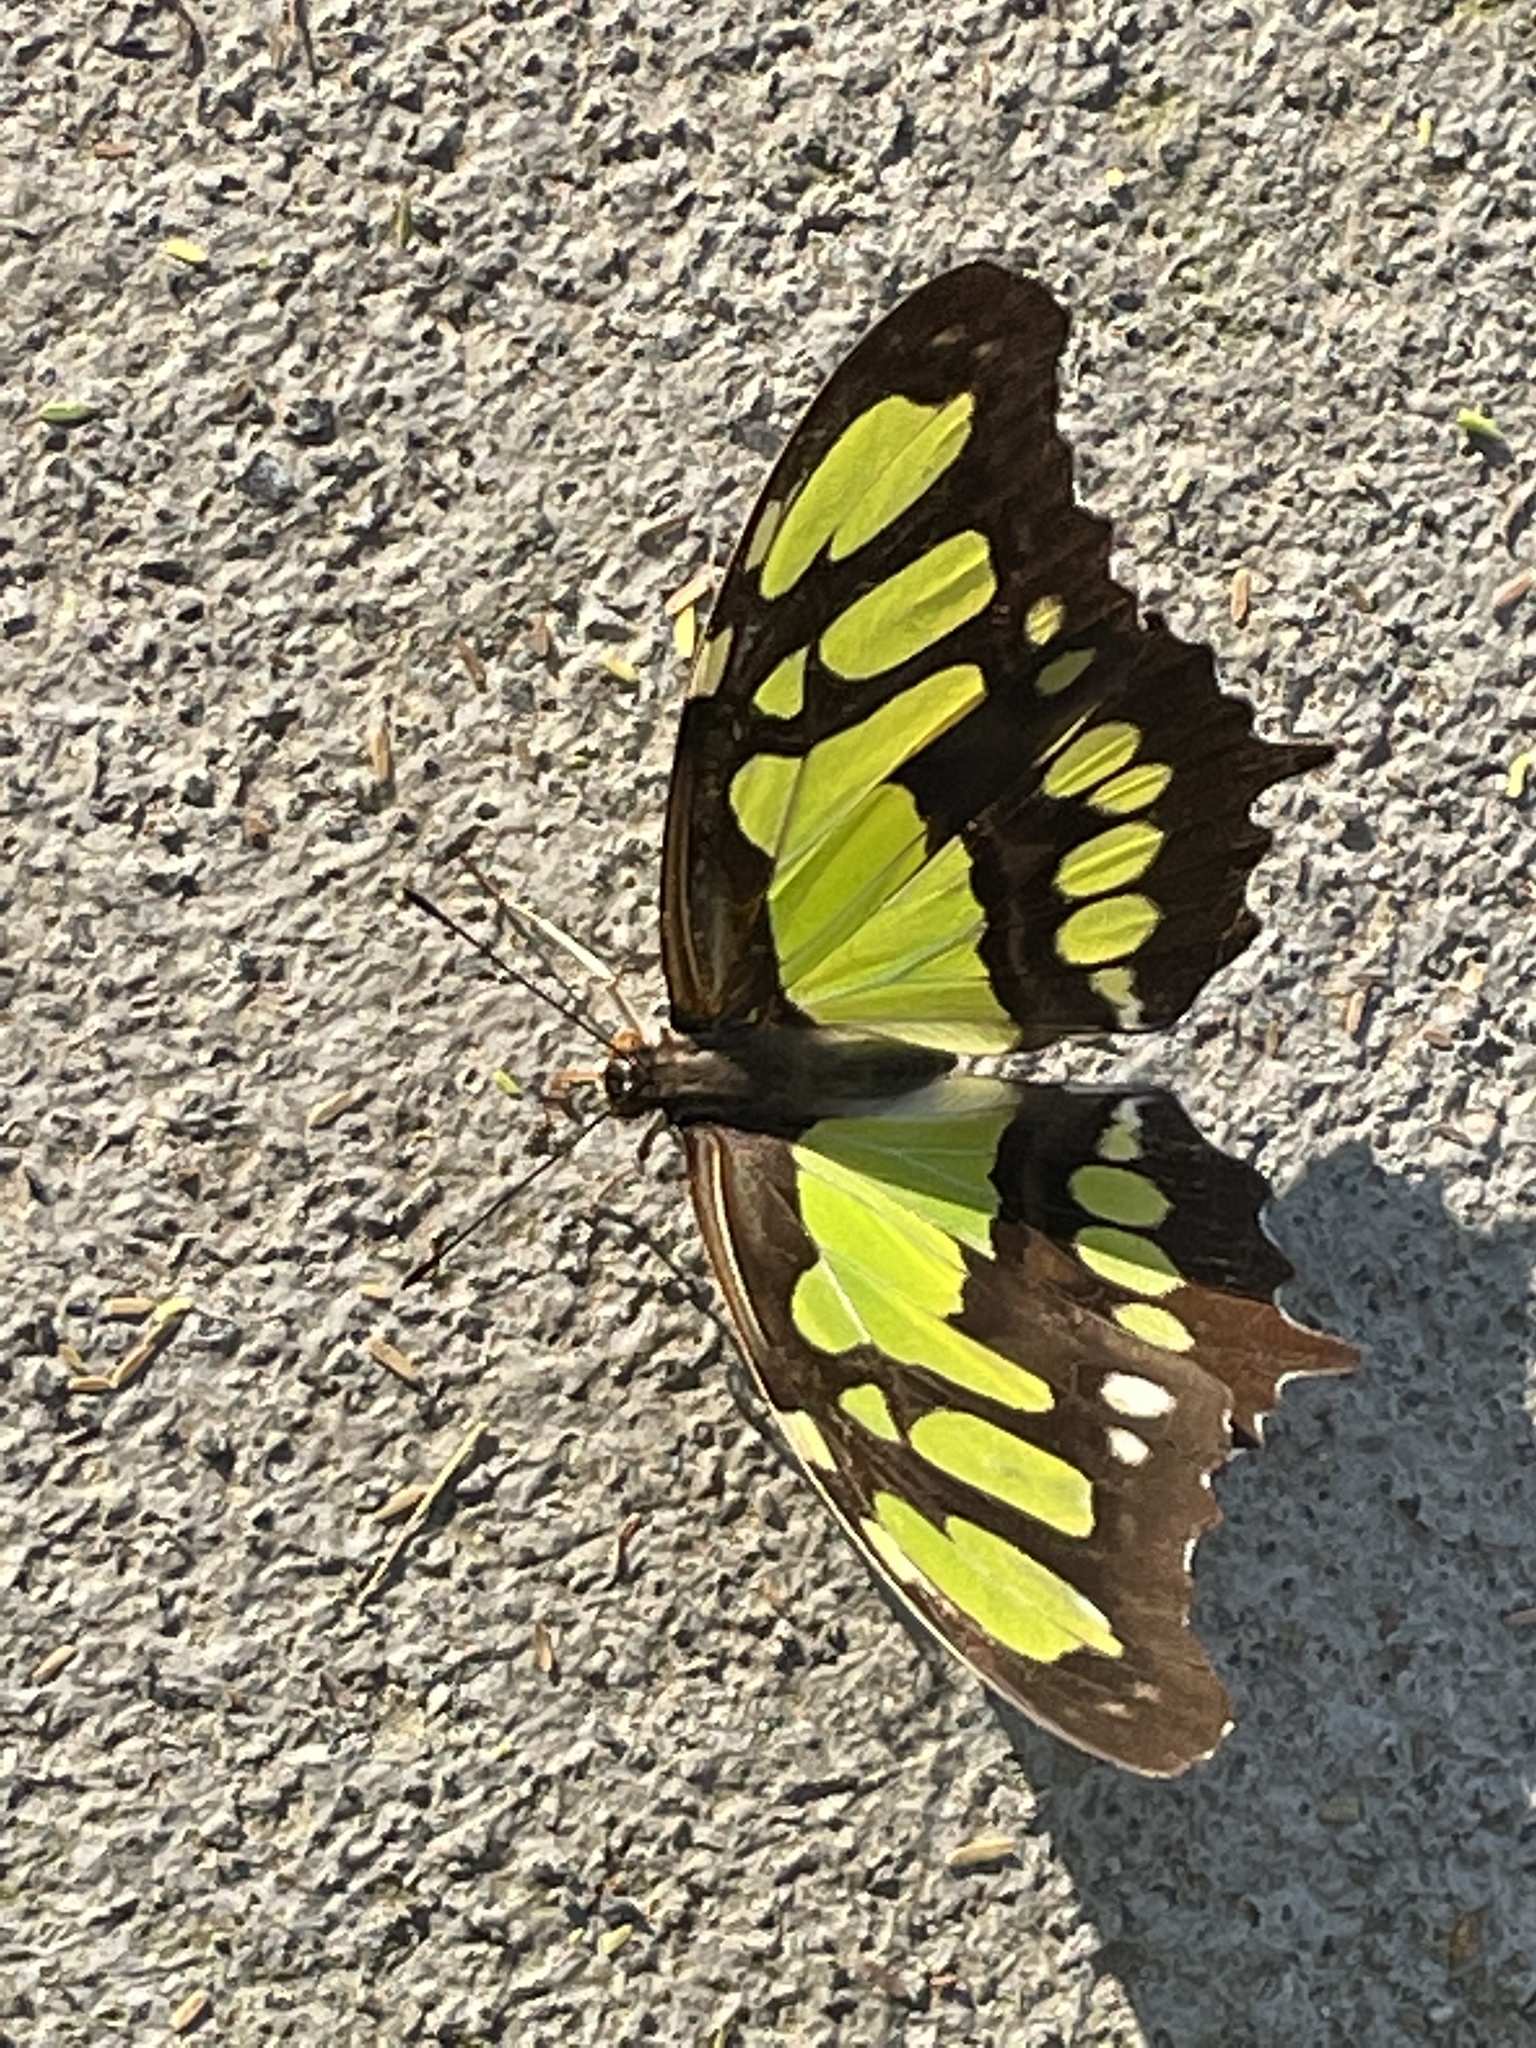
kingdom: Animalia
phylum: Arthropoda
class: Insecta
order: Lepidoptera
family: Nymphalidae
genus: Siproeta
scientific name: Siproeta stelenes
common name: Malachite
